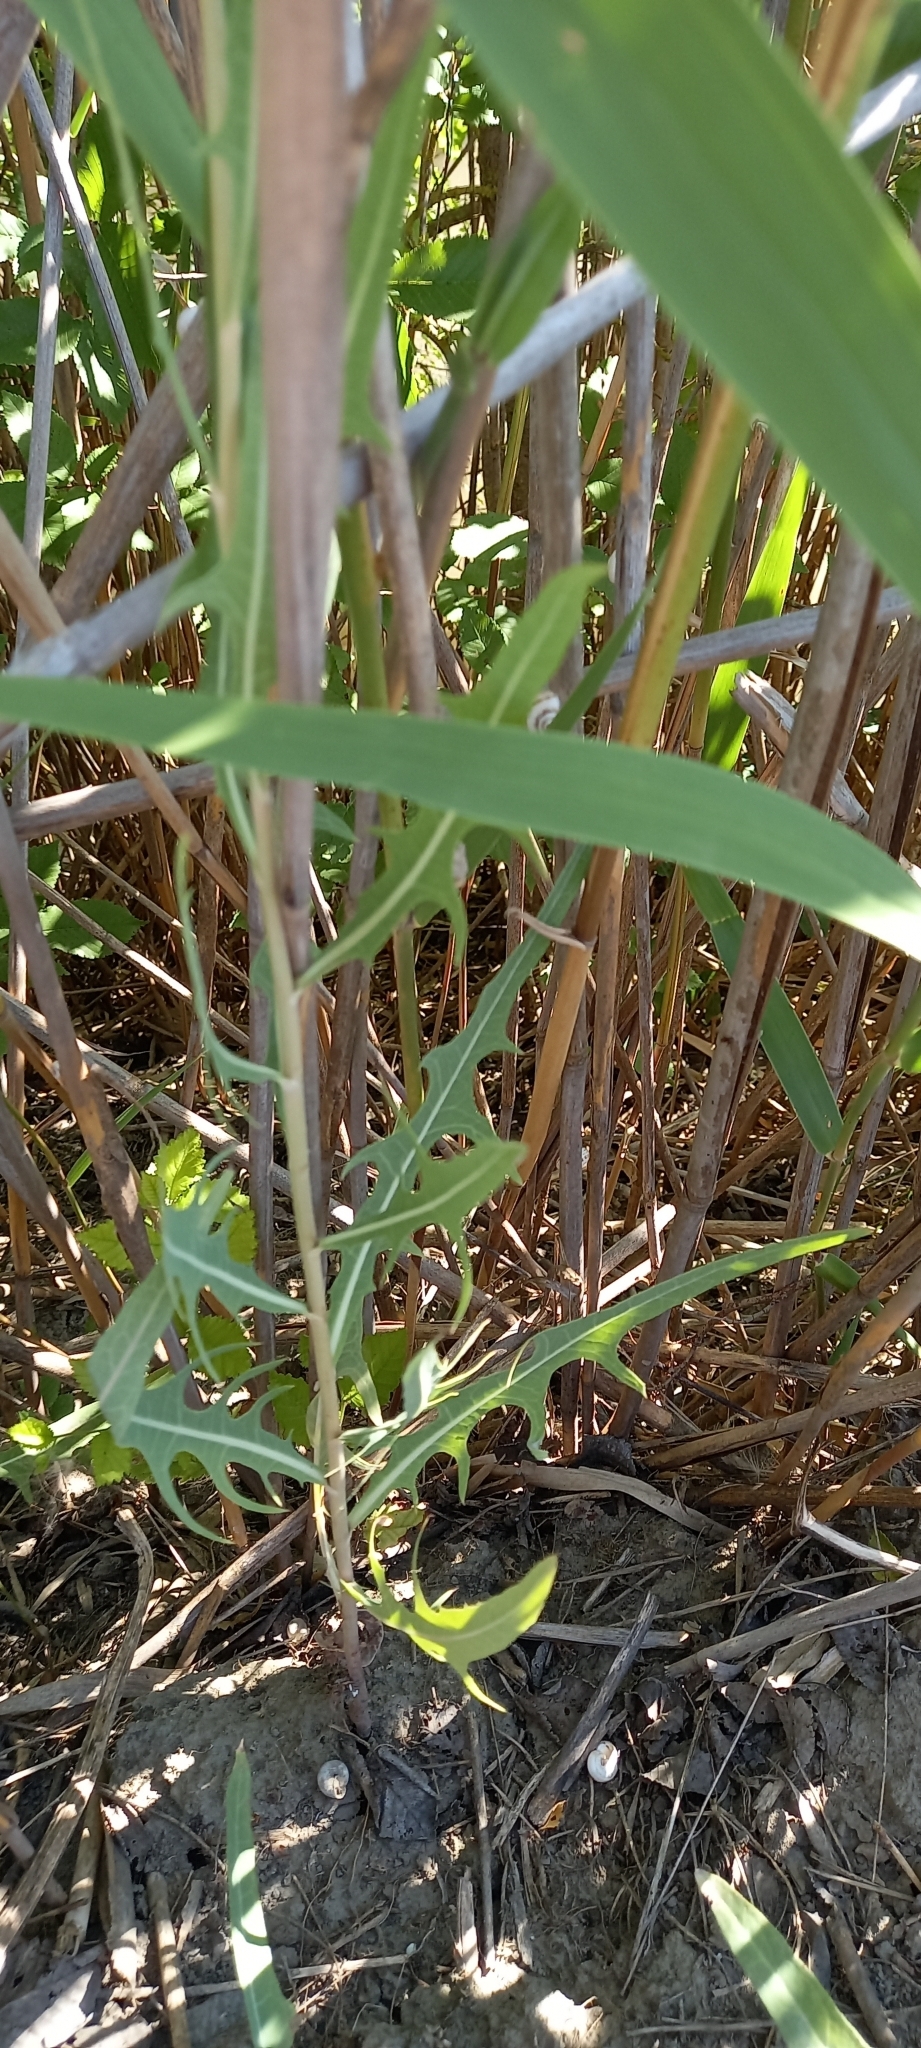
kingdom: Plantae
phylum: Tracheophyta
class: Magnoliopsida
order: Asterales
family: Asteraceae
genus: Lactuca
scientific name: Lactuca tatarica
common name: Blue lettuce
